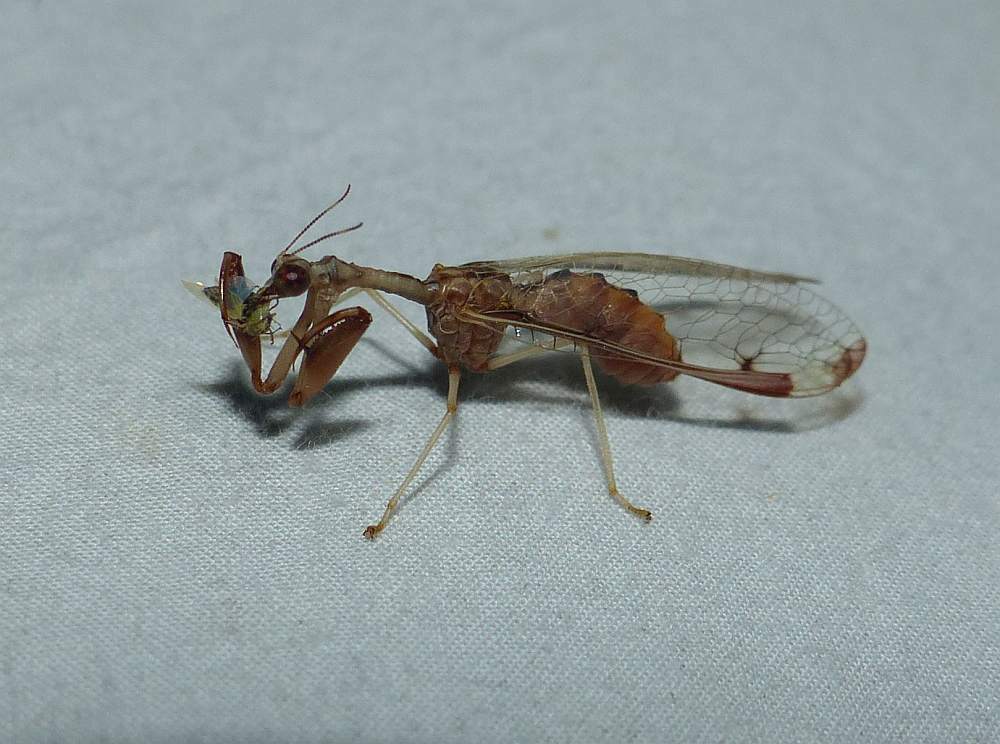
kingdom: Animalia
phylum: Arthropoda
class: Insecta
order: Neuroptera
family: Mantispidae
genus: Dicromantispa
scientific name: Dicromantispa interrupta
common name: Four-spotted mantidfly
